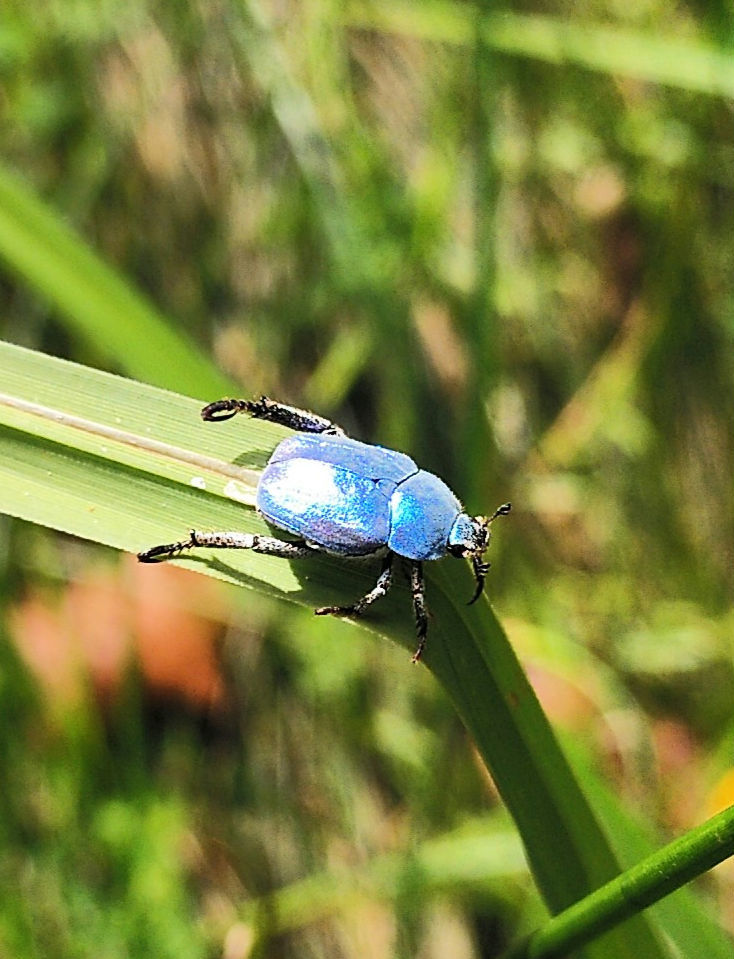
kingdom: Animalia
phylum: Arthropoda
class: Insecta
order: Coleoptera
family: Scarabaeidae
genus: Hoplia
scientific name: Hoplia coerulea
